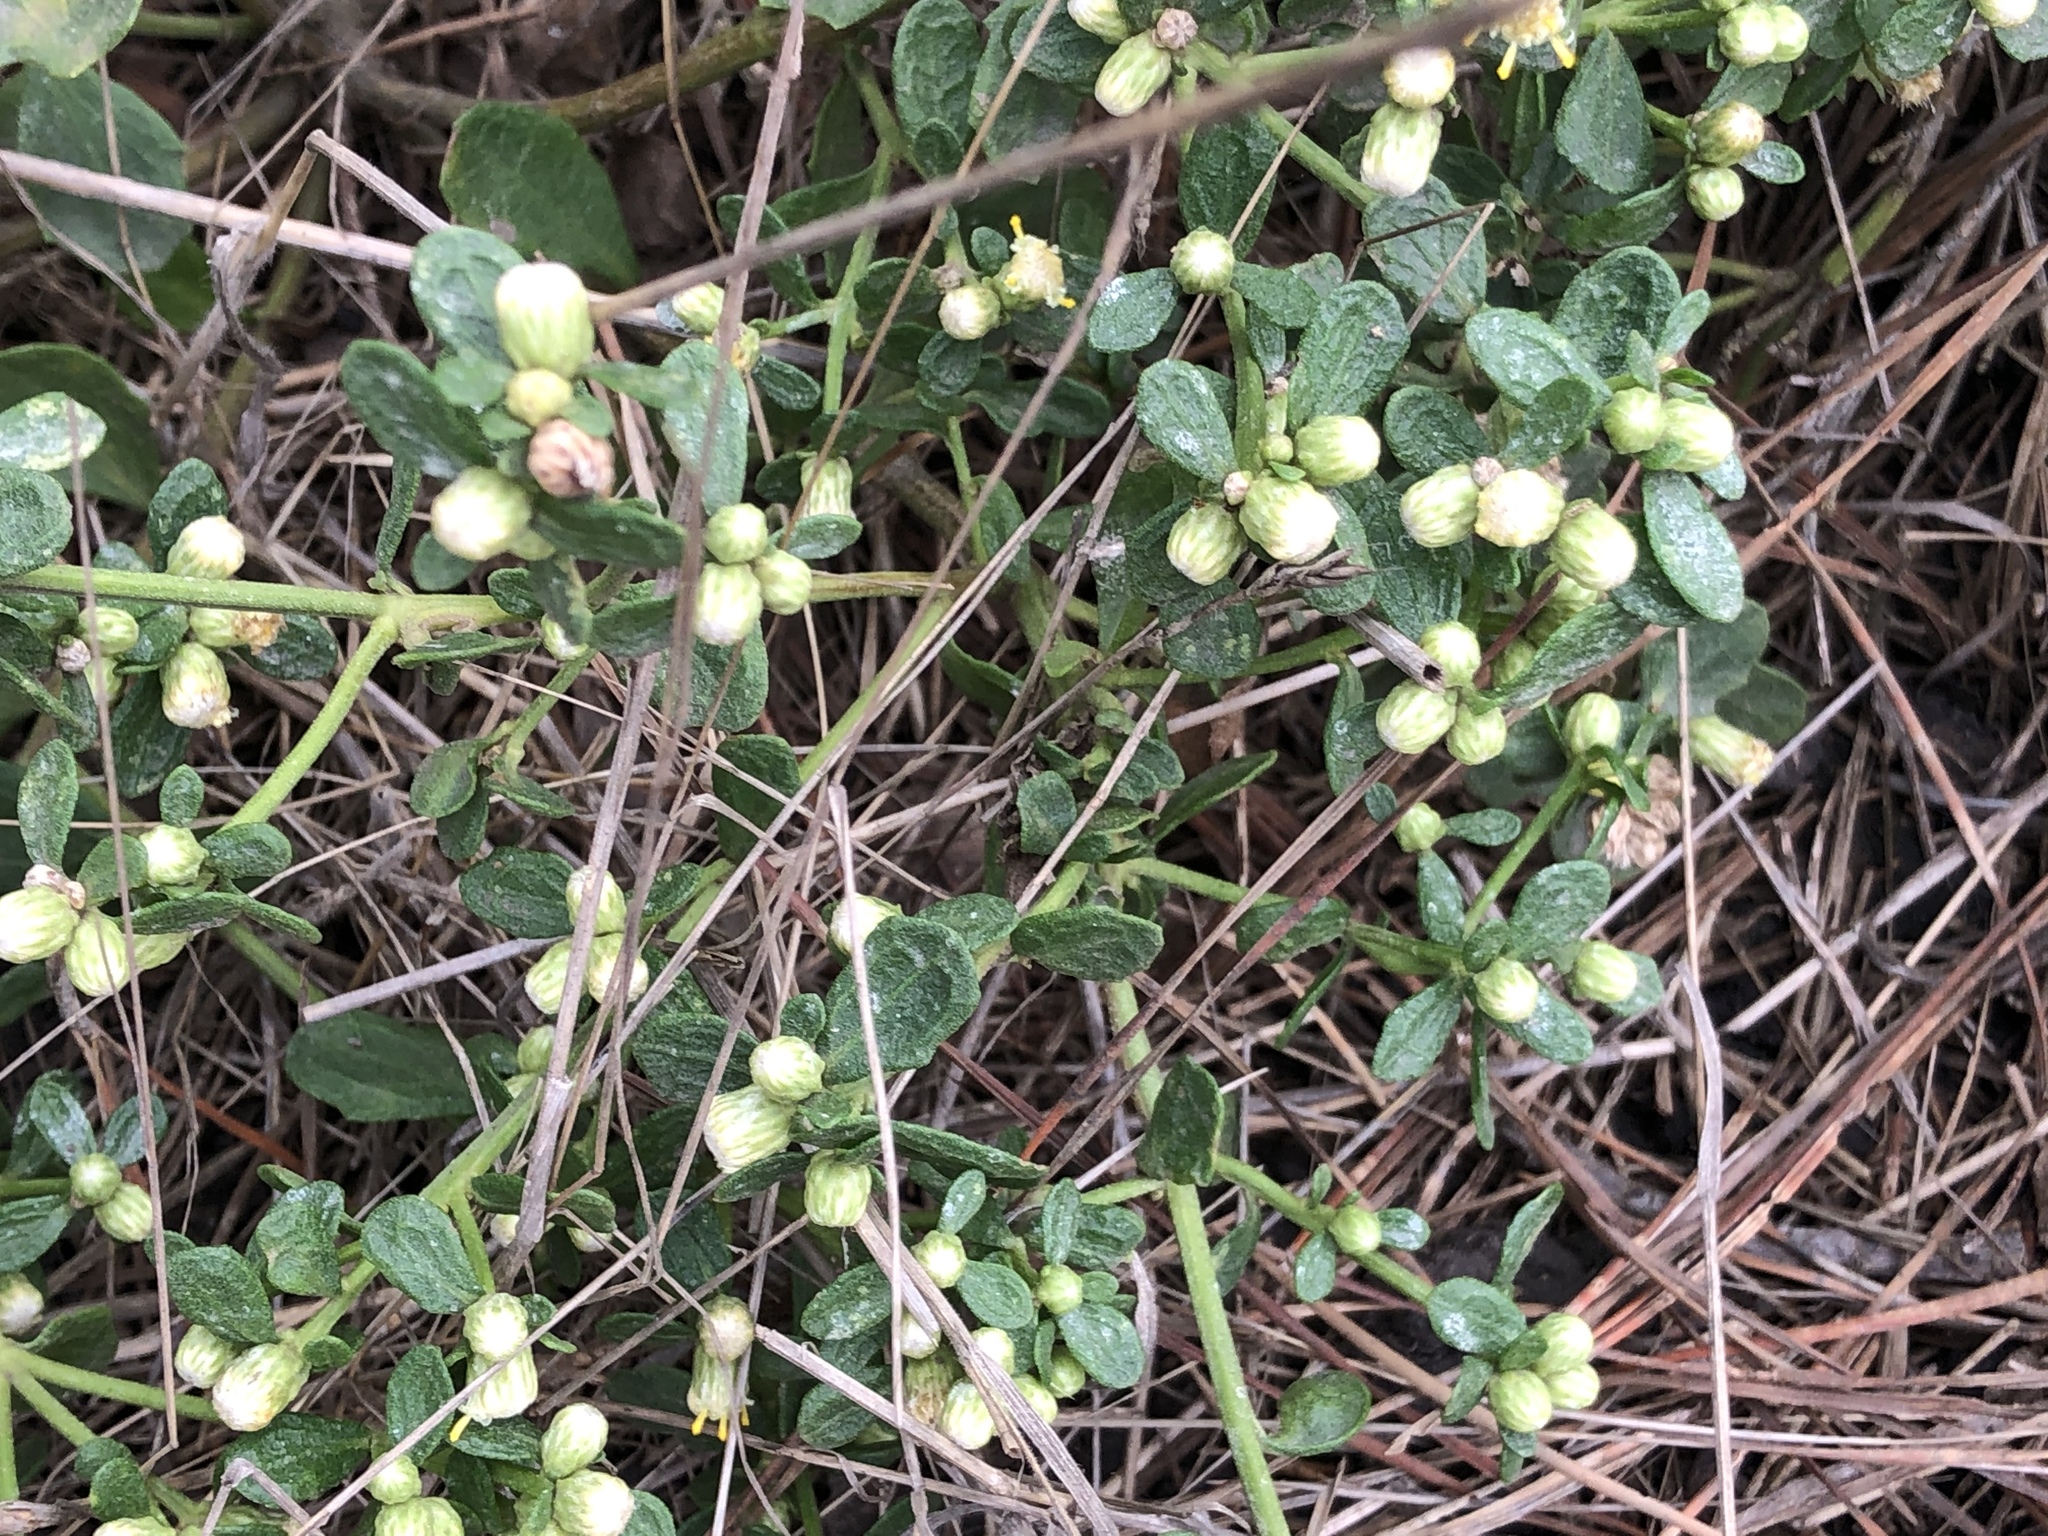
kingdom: Plantae
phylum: Tracheophyta
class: Magnoliopsida
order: Asterales
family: Asteraceae
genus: Baccharis
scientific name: Baccharis pilularis
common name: Coyotebrush
